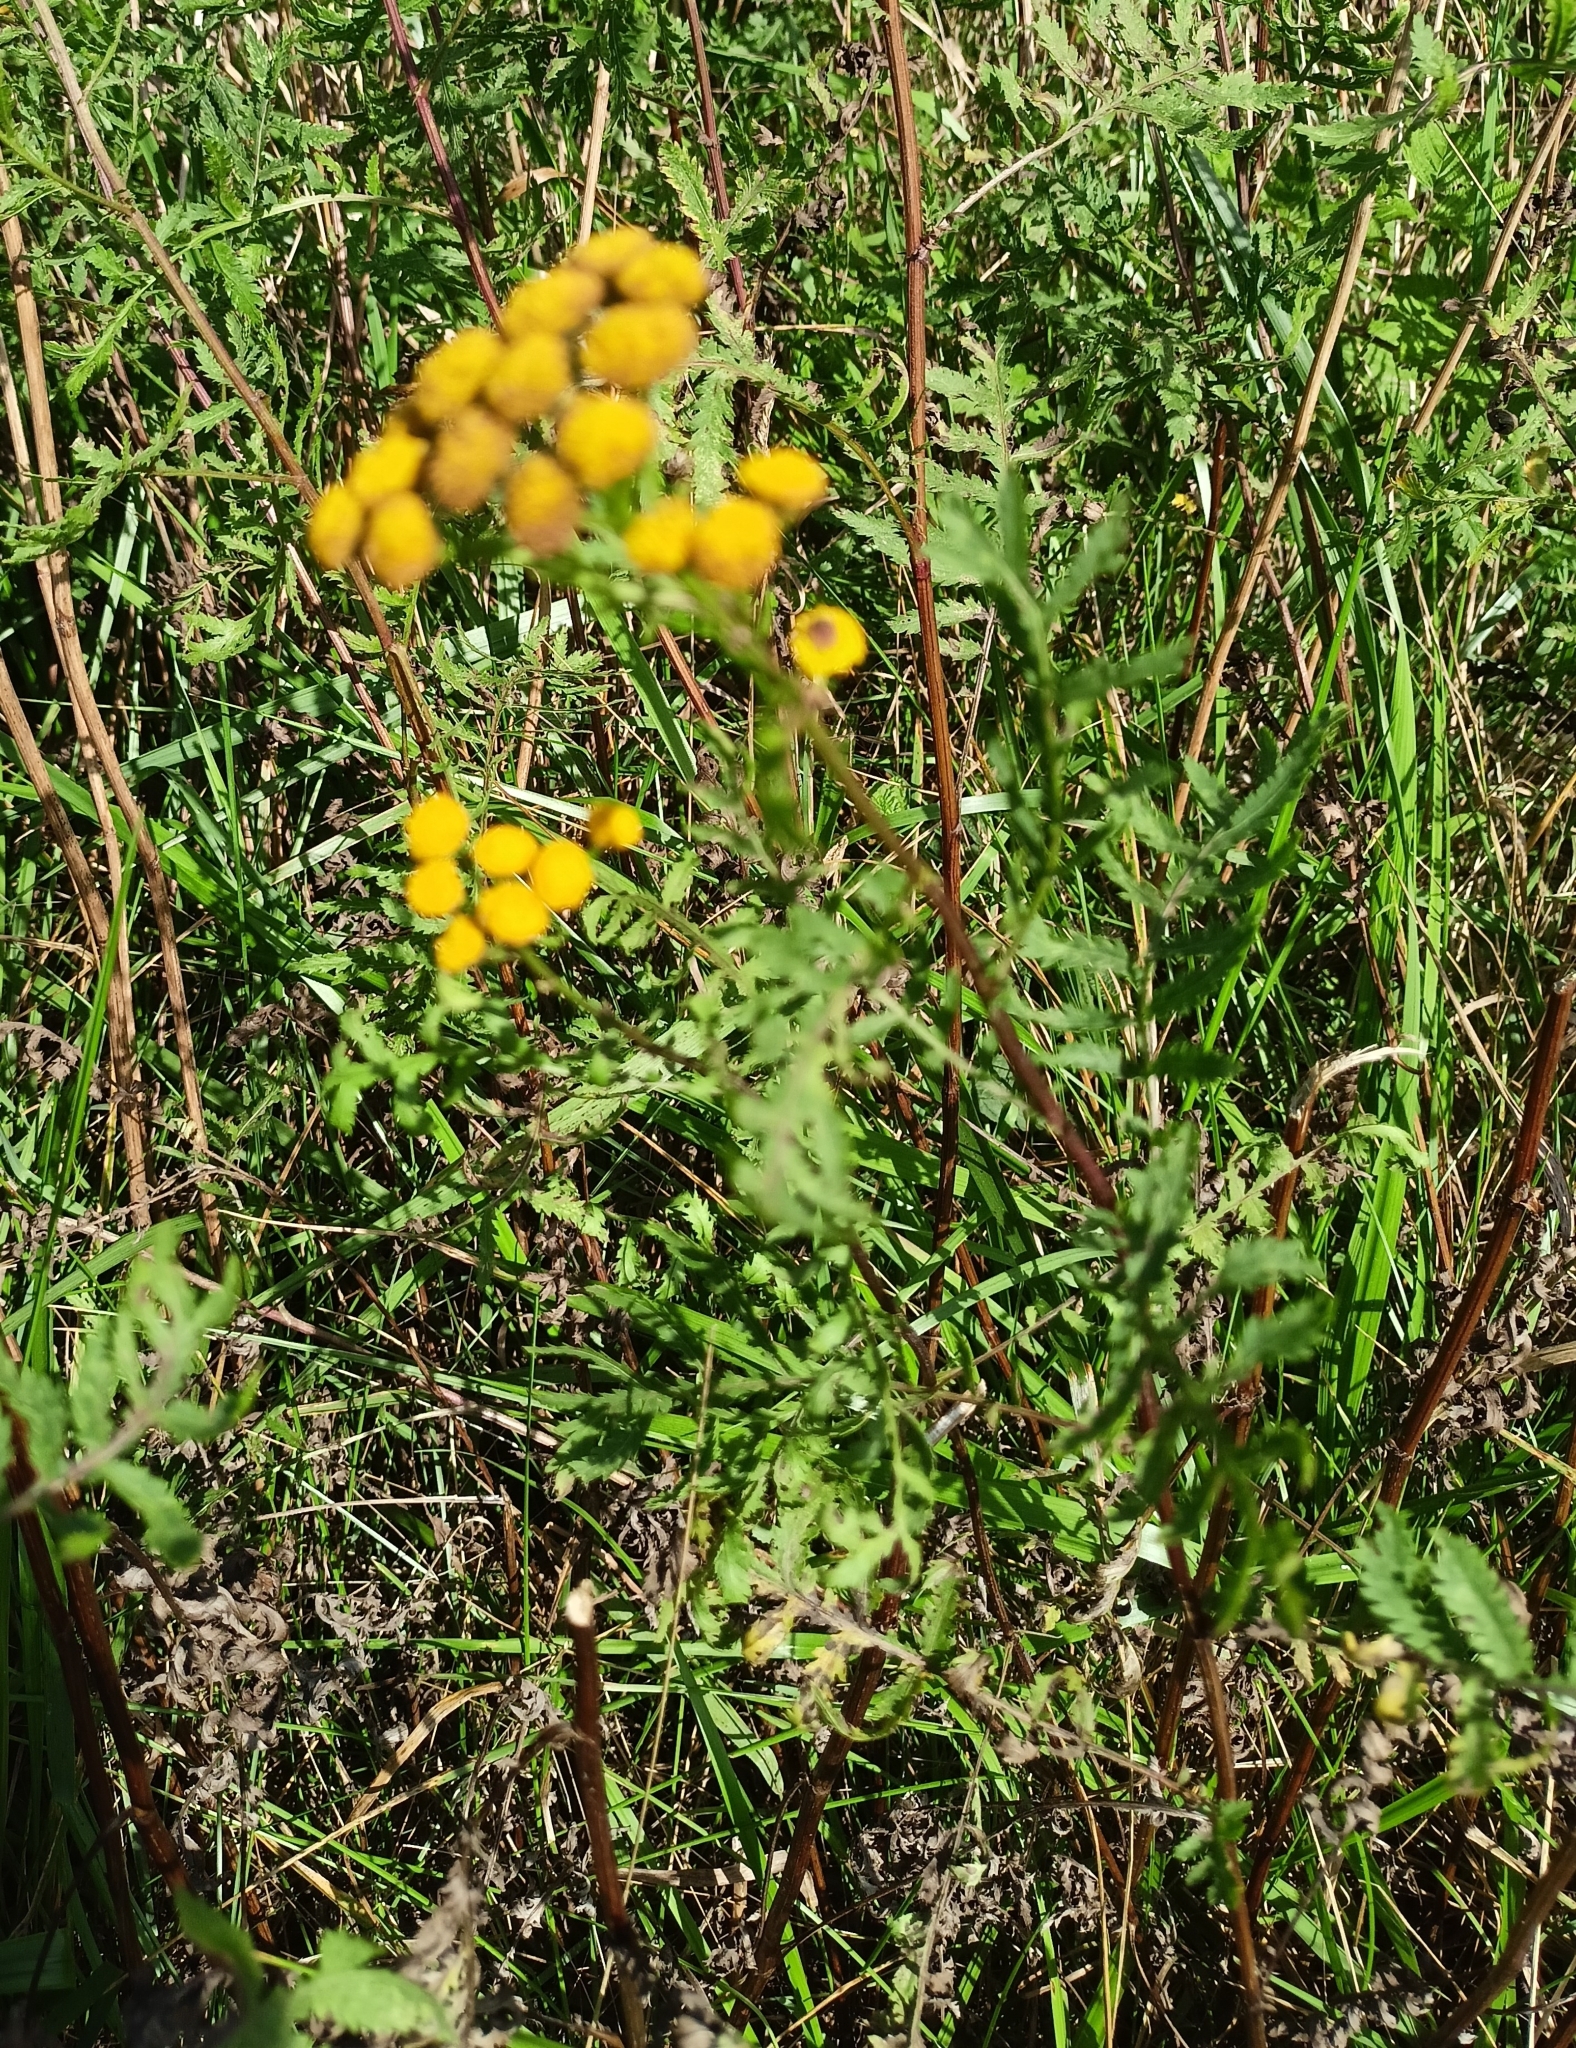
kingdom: Plantae
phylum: Tracheophyta
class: Magnoliopsida
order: Asterales
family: Asteraceae
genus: Tanacetum
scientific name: Tanacetum vulgare
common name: Common tansy
